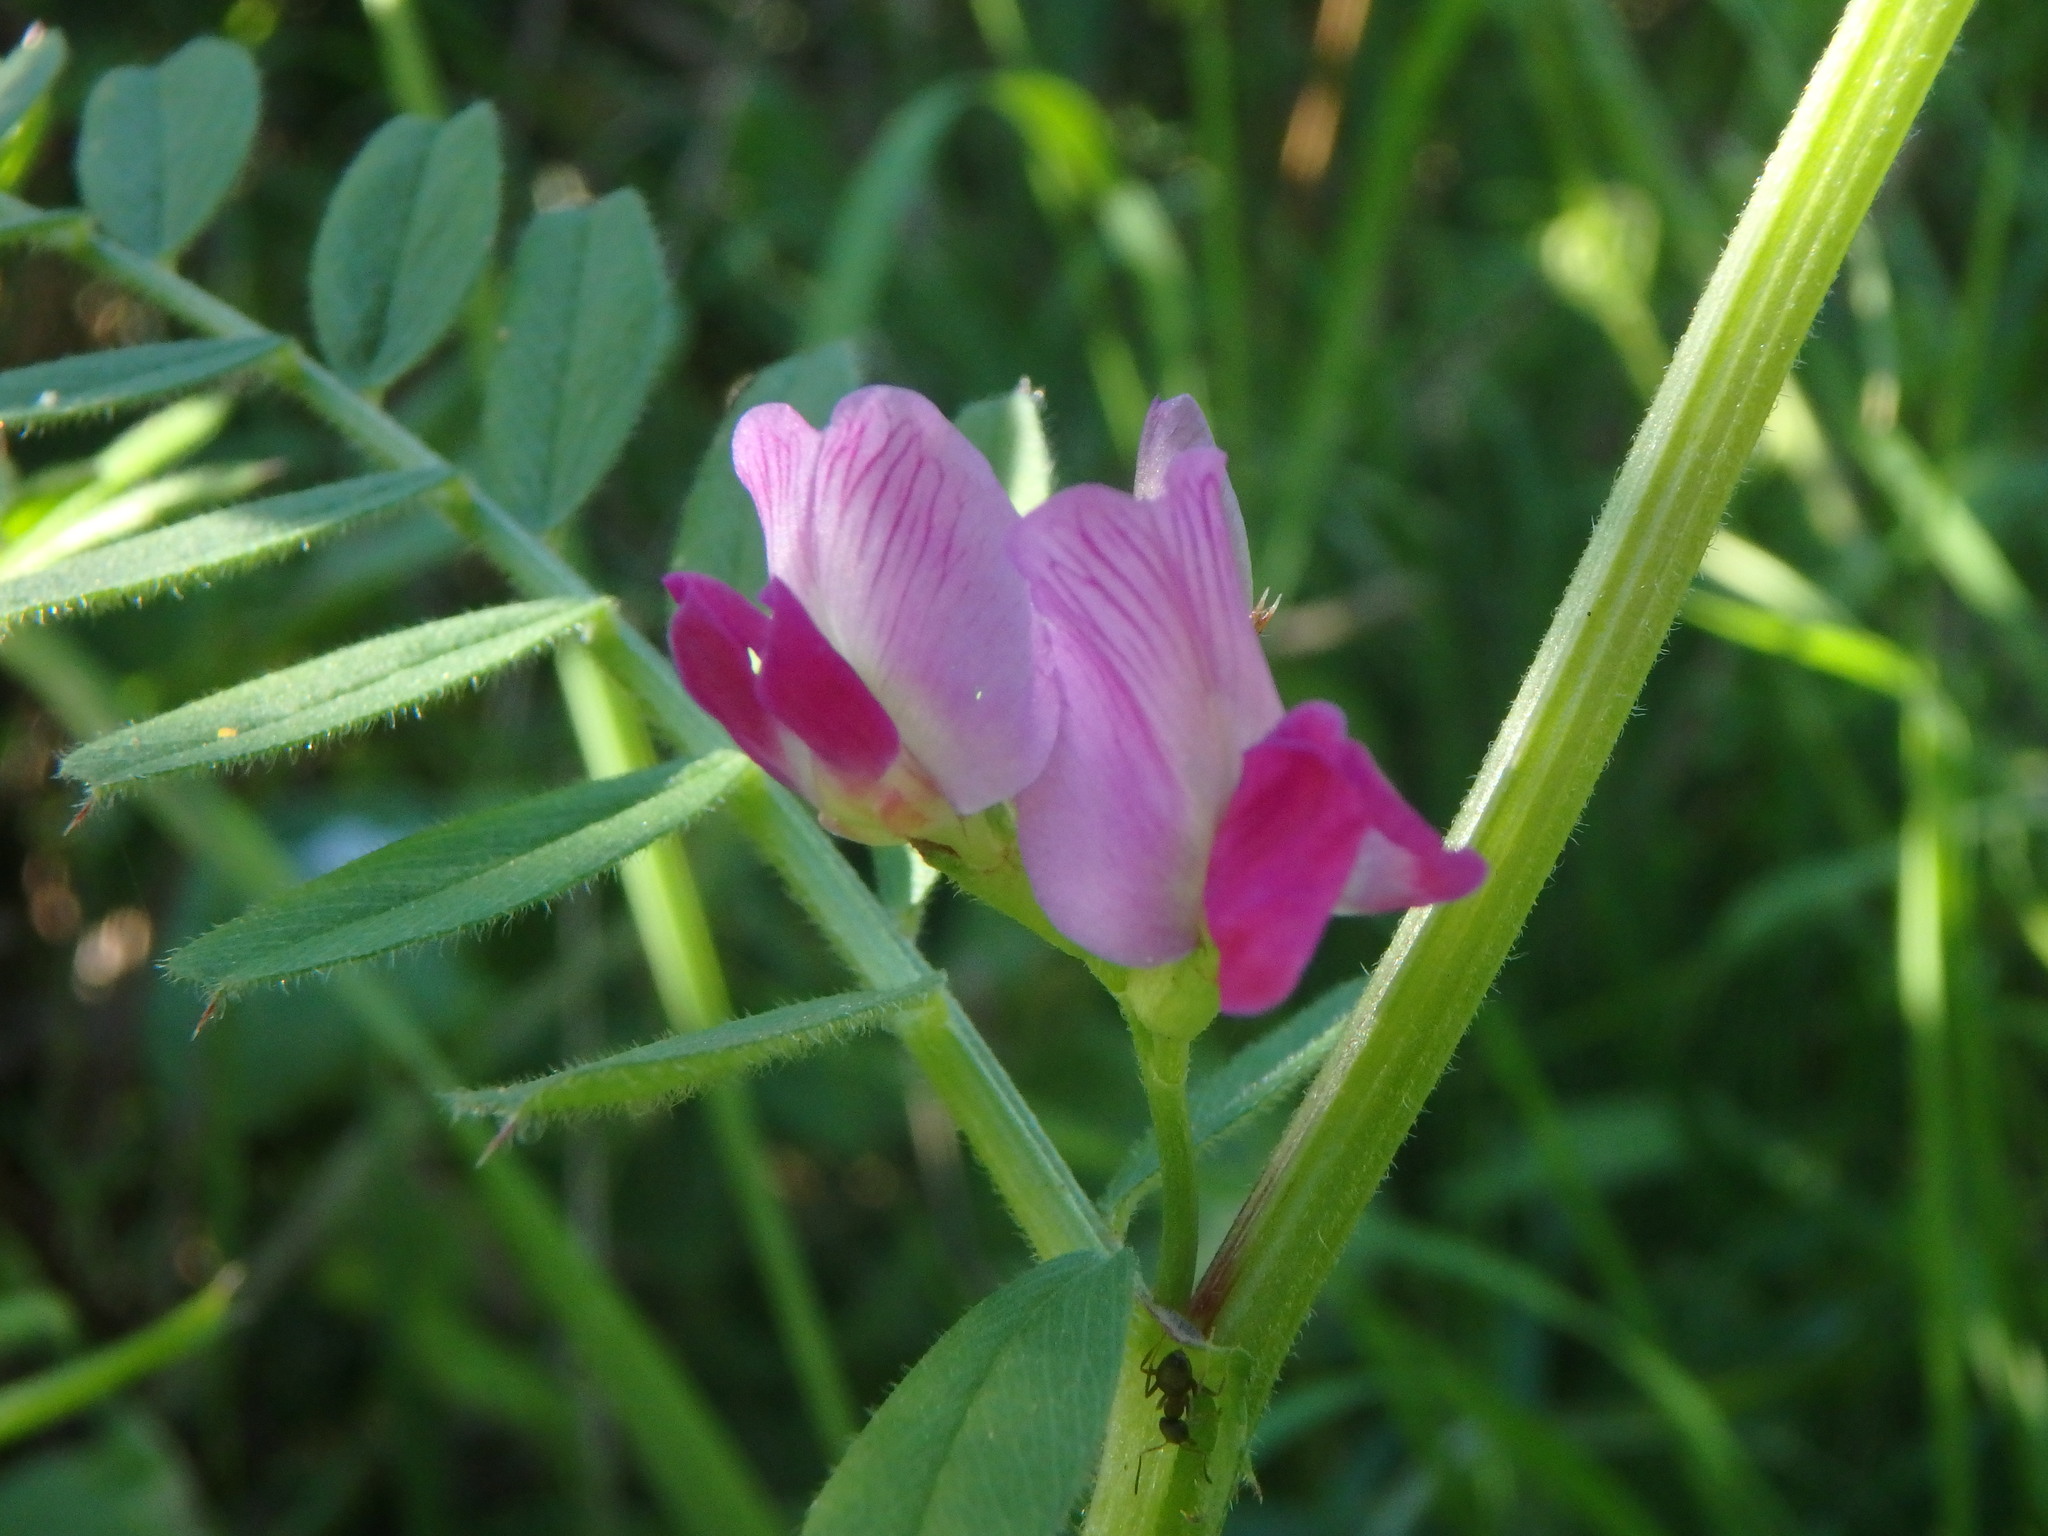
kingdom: Plantae
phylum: Tracheophyta
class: Magnoliopsida
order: Fabales
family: Fabaceae
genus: Vicia
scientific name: Vicia sativa
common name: Garden vetch
